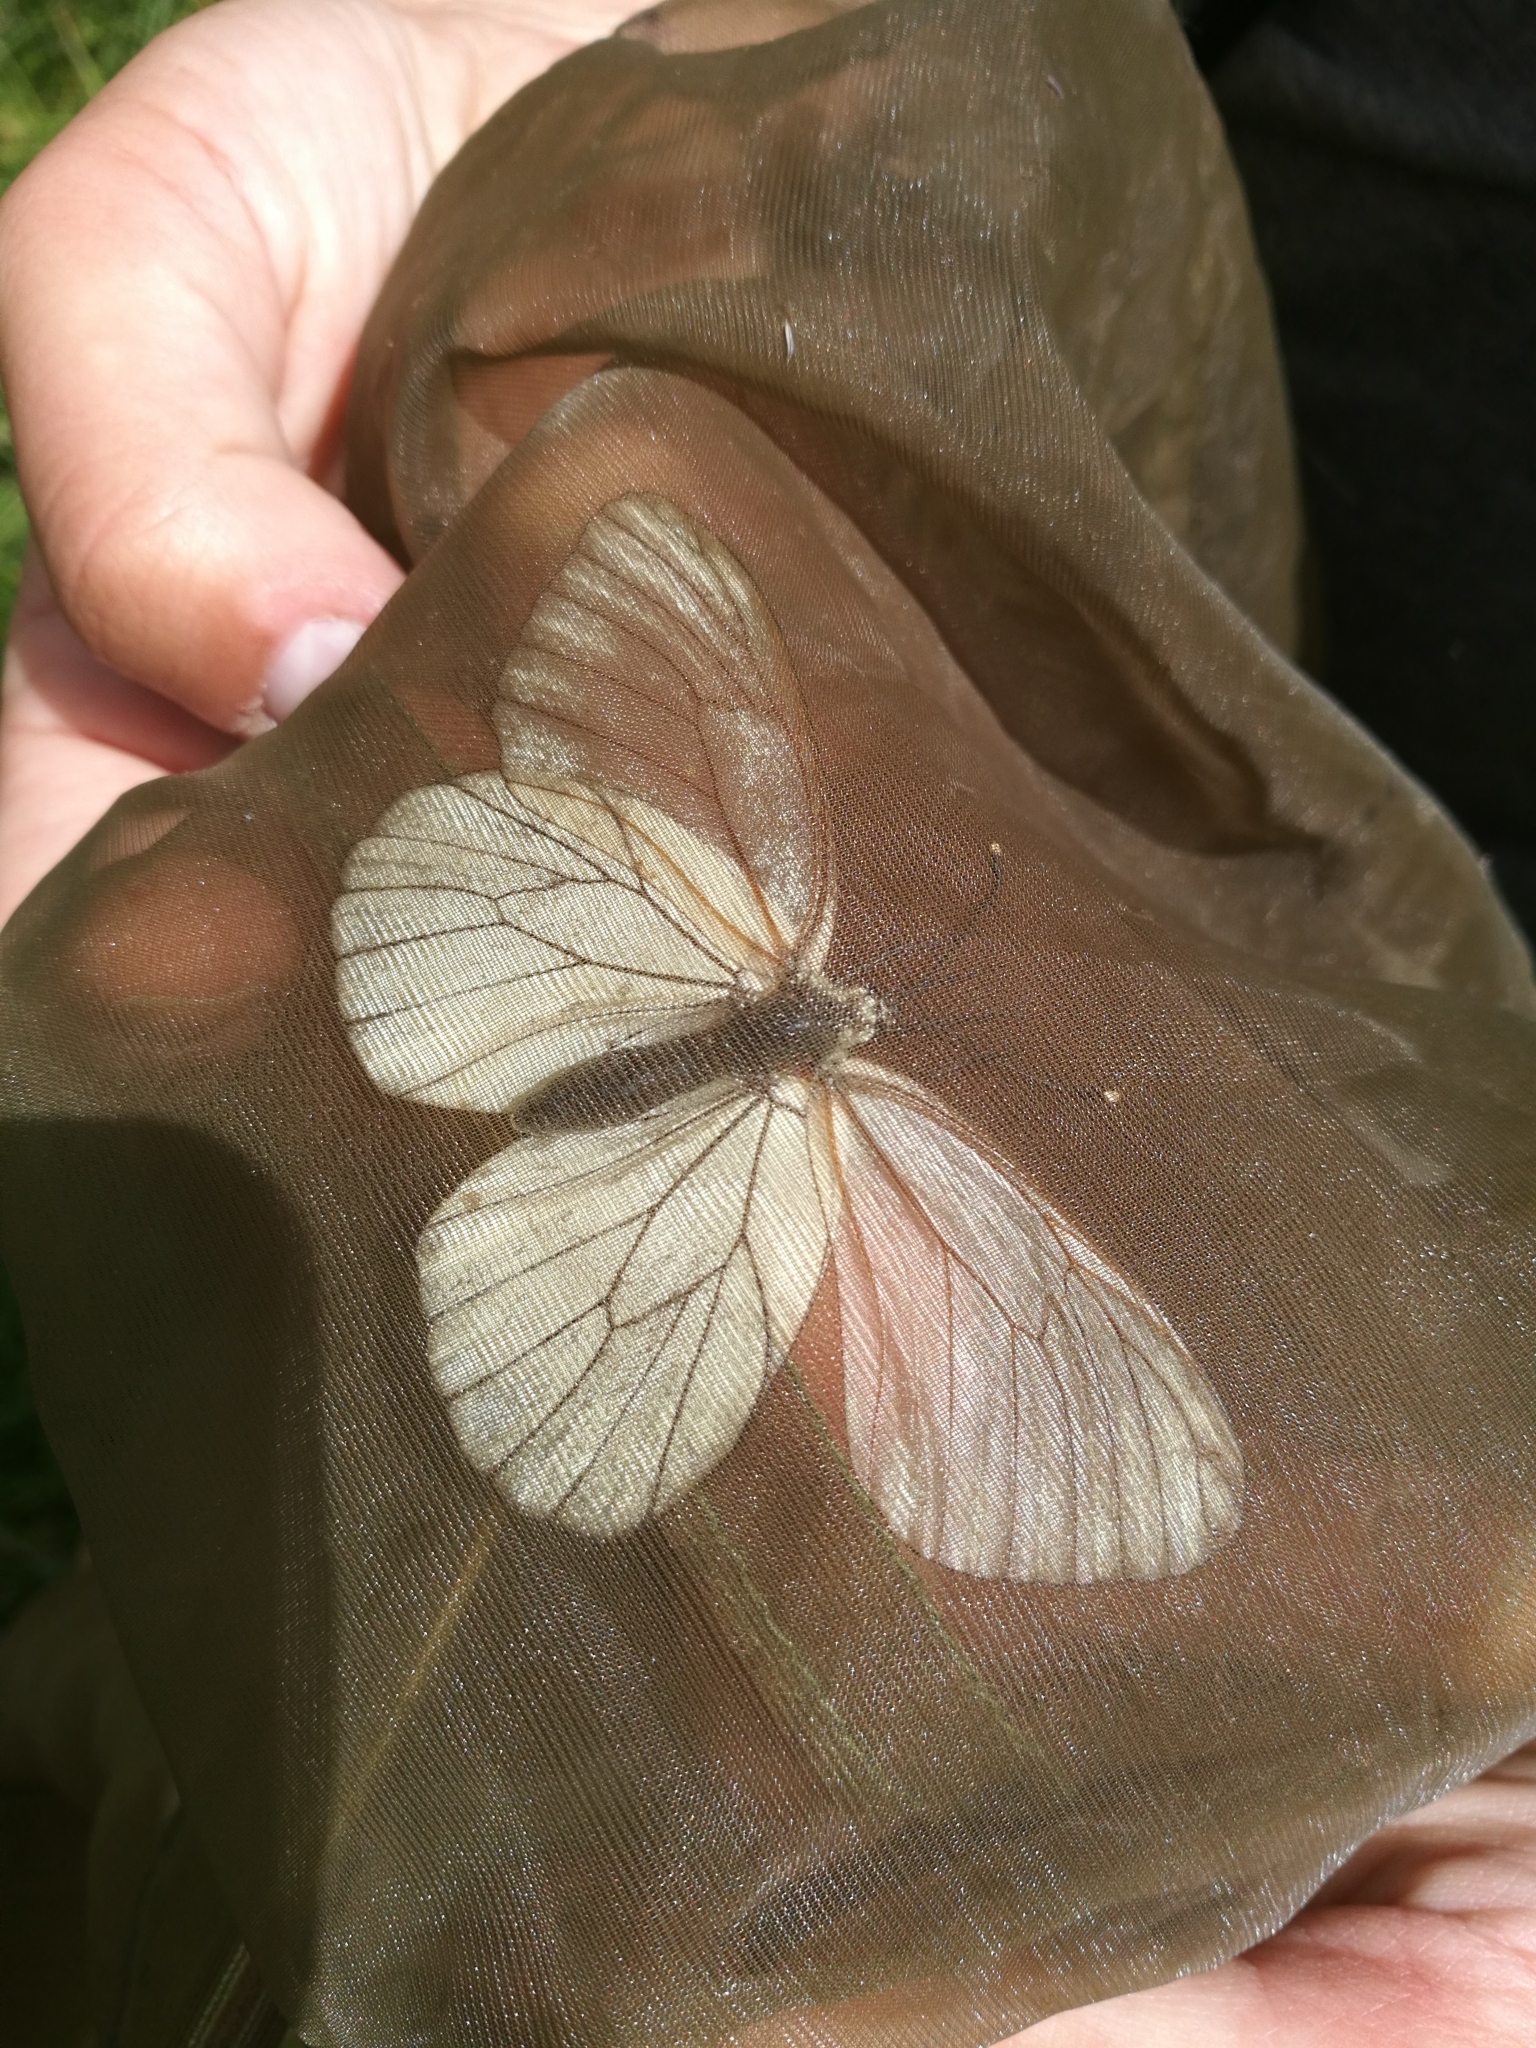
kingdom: Animalia
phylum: Arthropoda
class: Insecta
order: Lepidoptera
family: Pieridae
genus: Aporia
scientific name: Aporia crataegi
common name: Black-veined white
